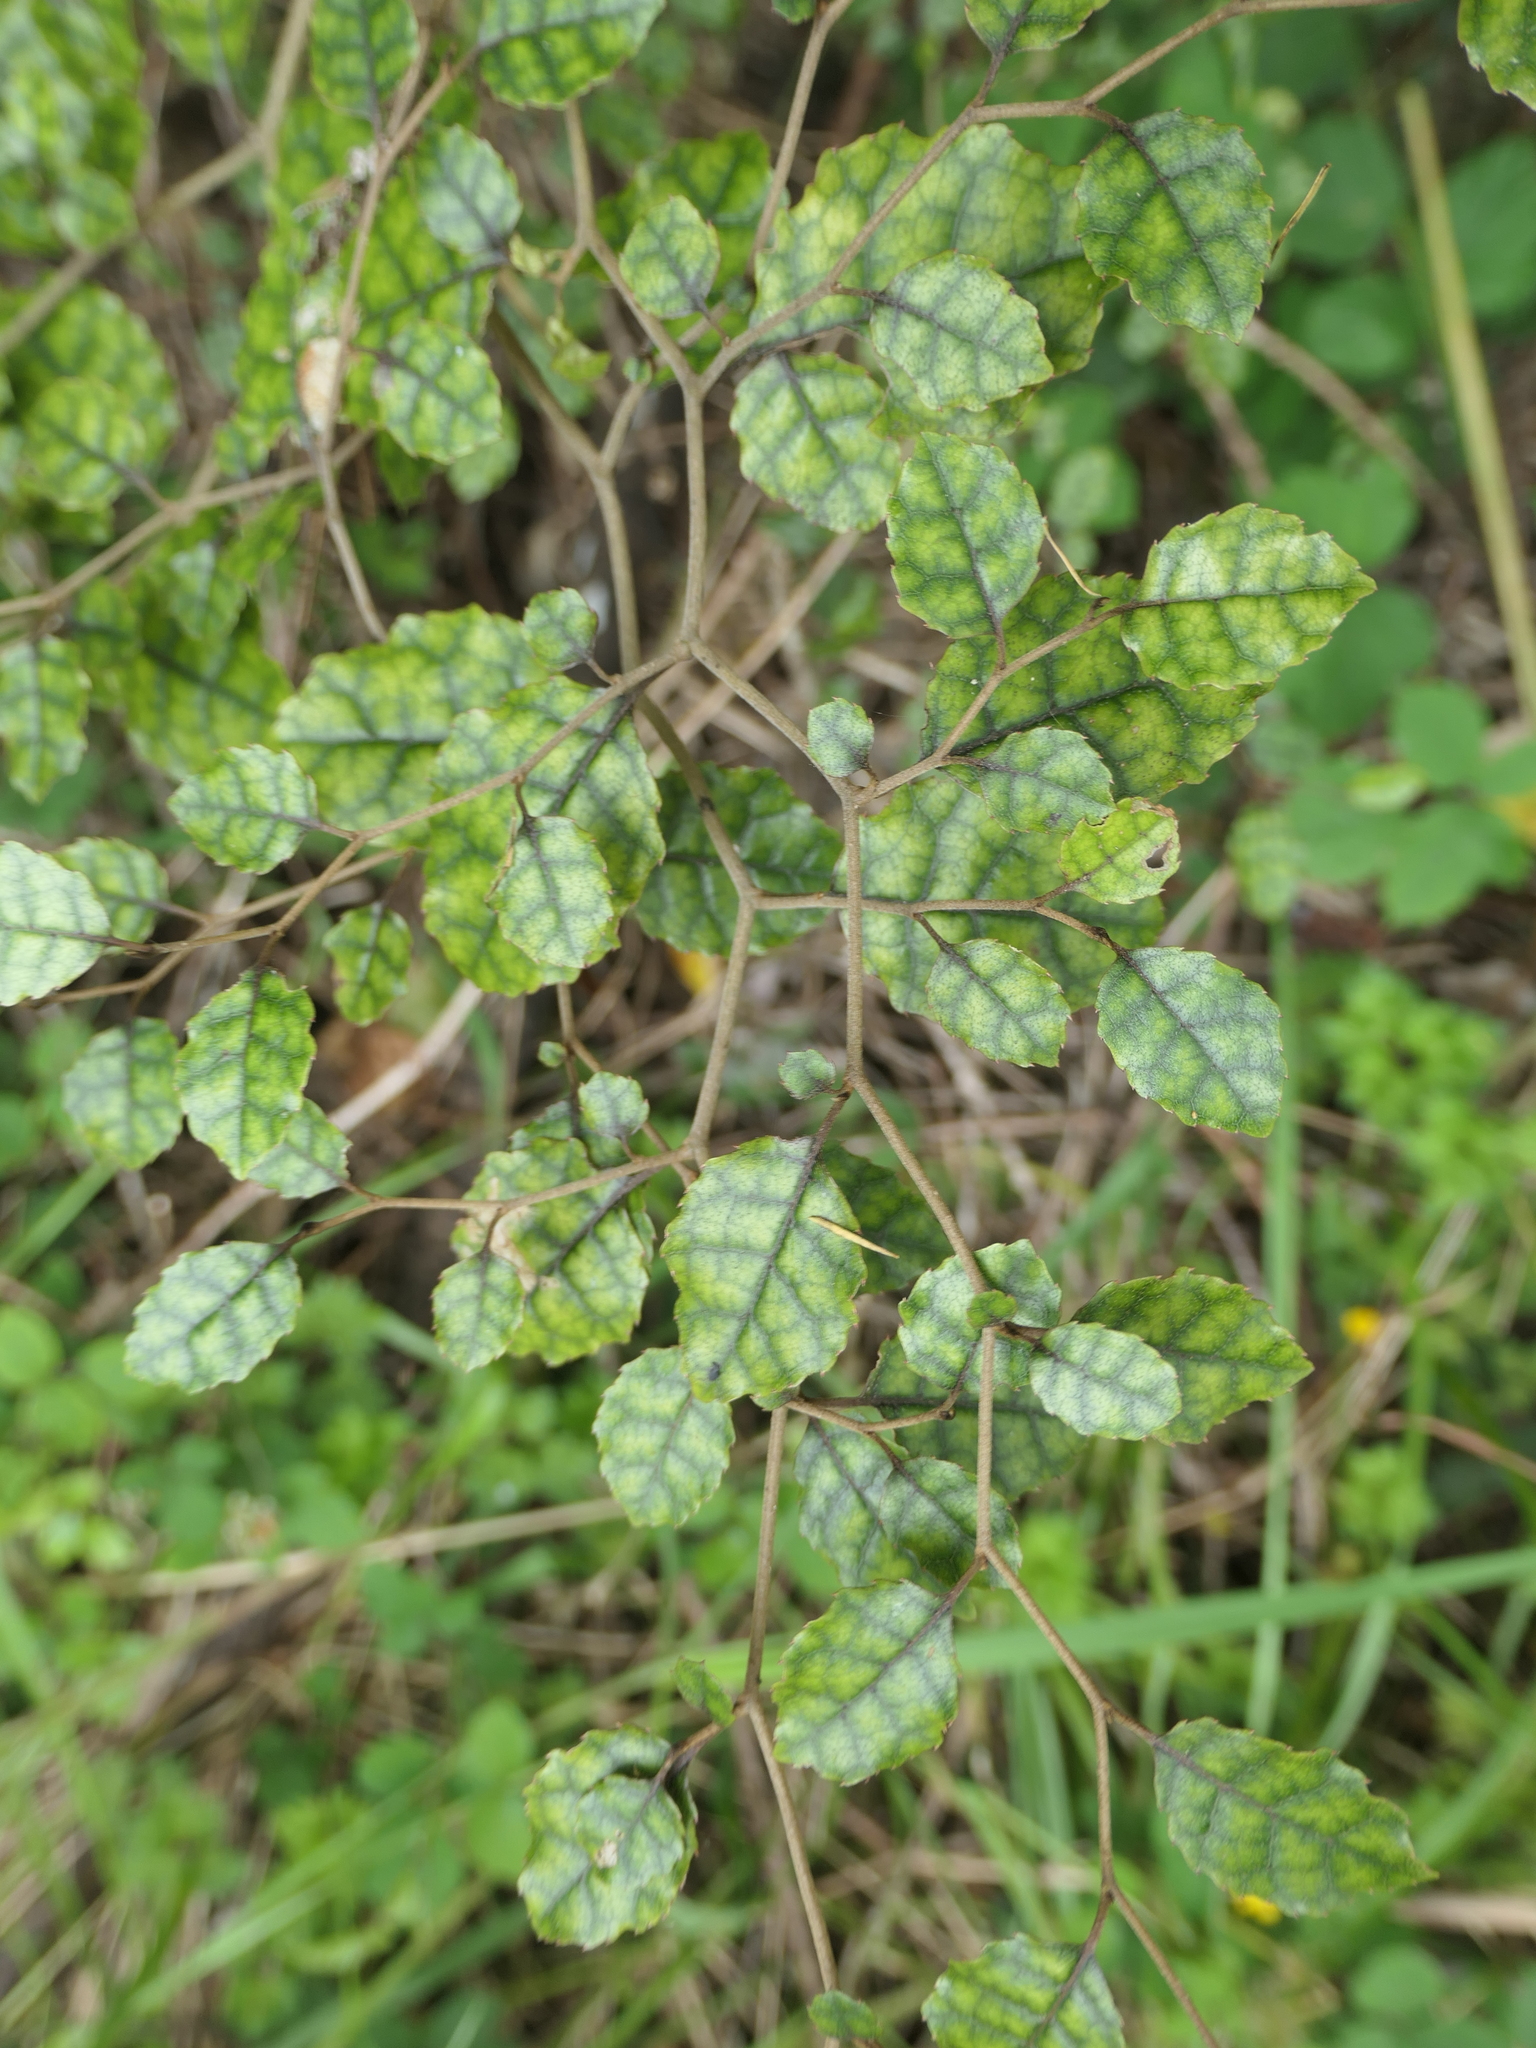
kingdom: Plantae
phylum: Tracheophyta
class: Magnoliopsida
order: Asterales
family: Rousseaceae
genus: Carpodetus
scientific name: Carpodetus serratus
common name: White mapau
